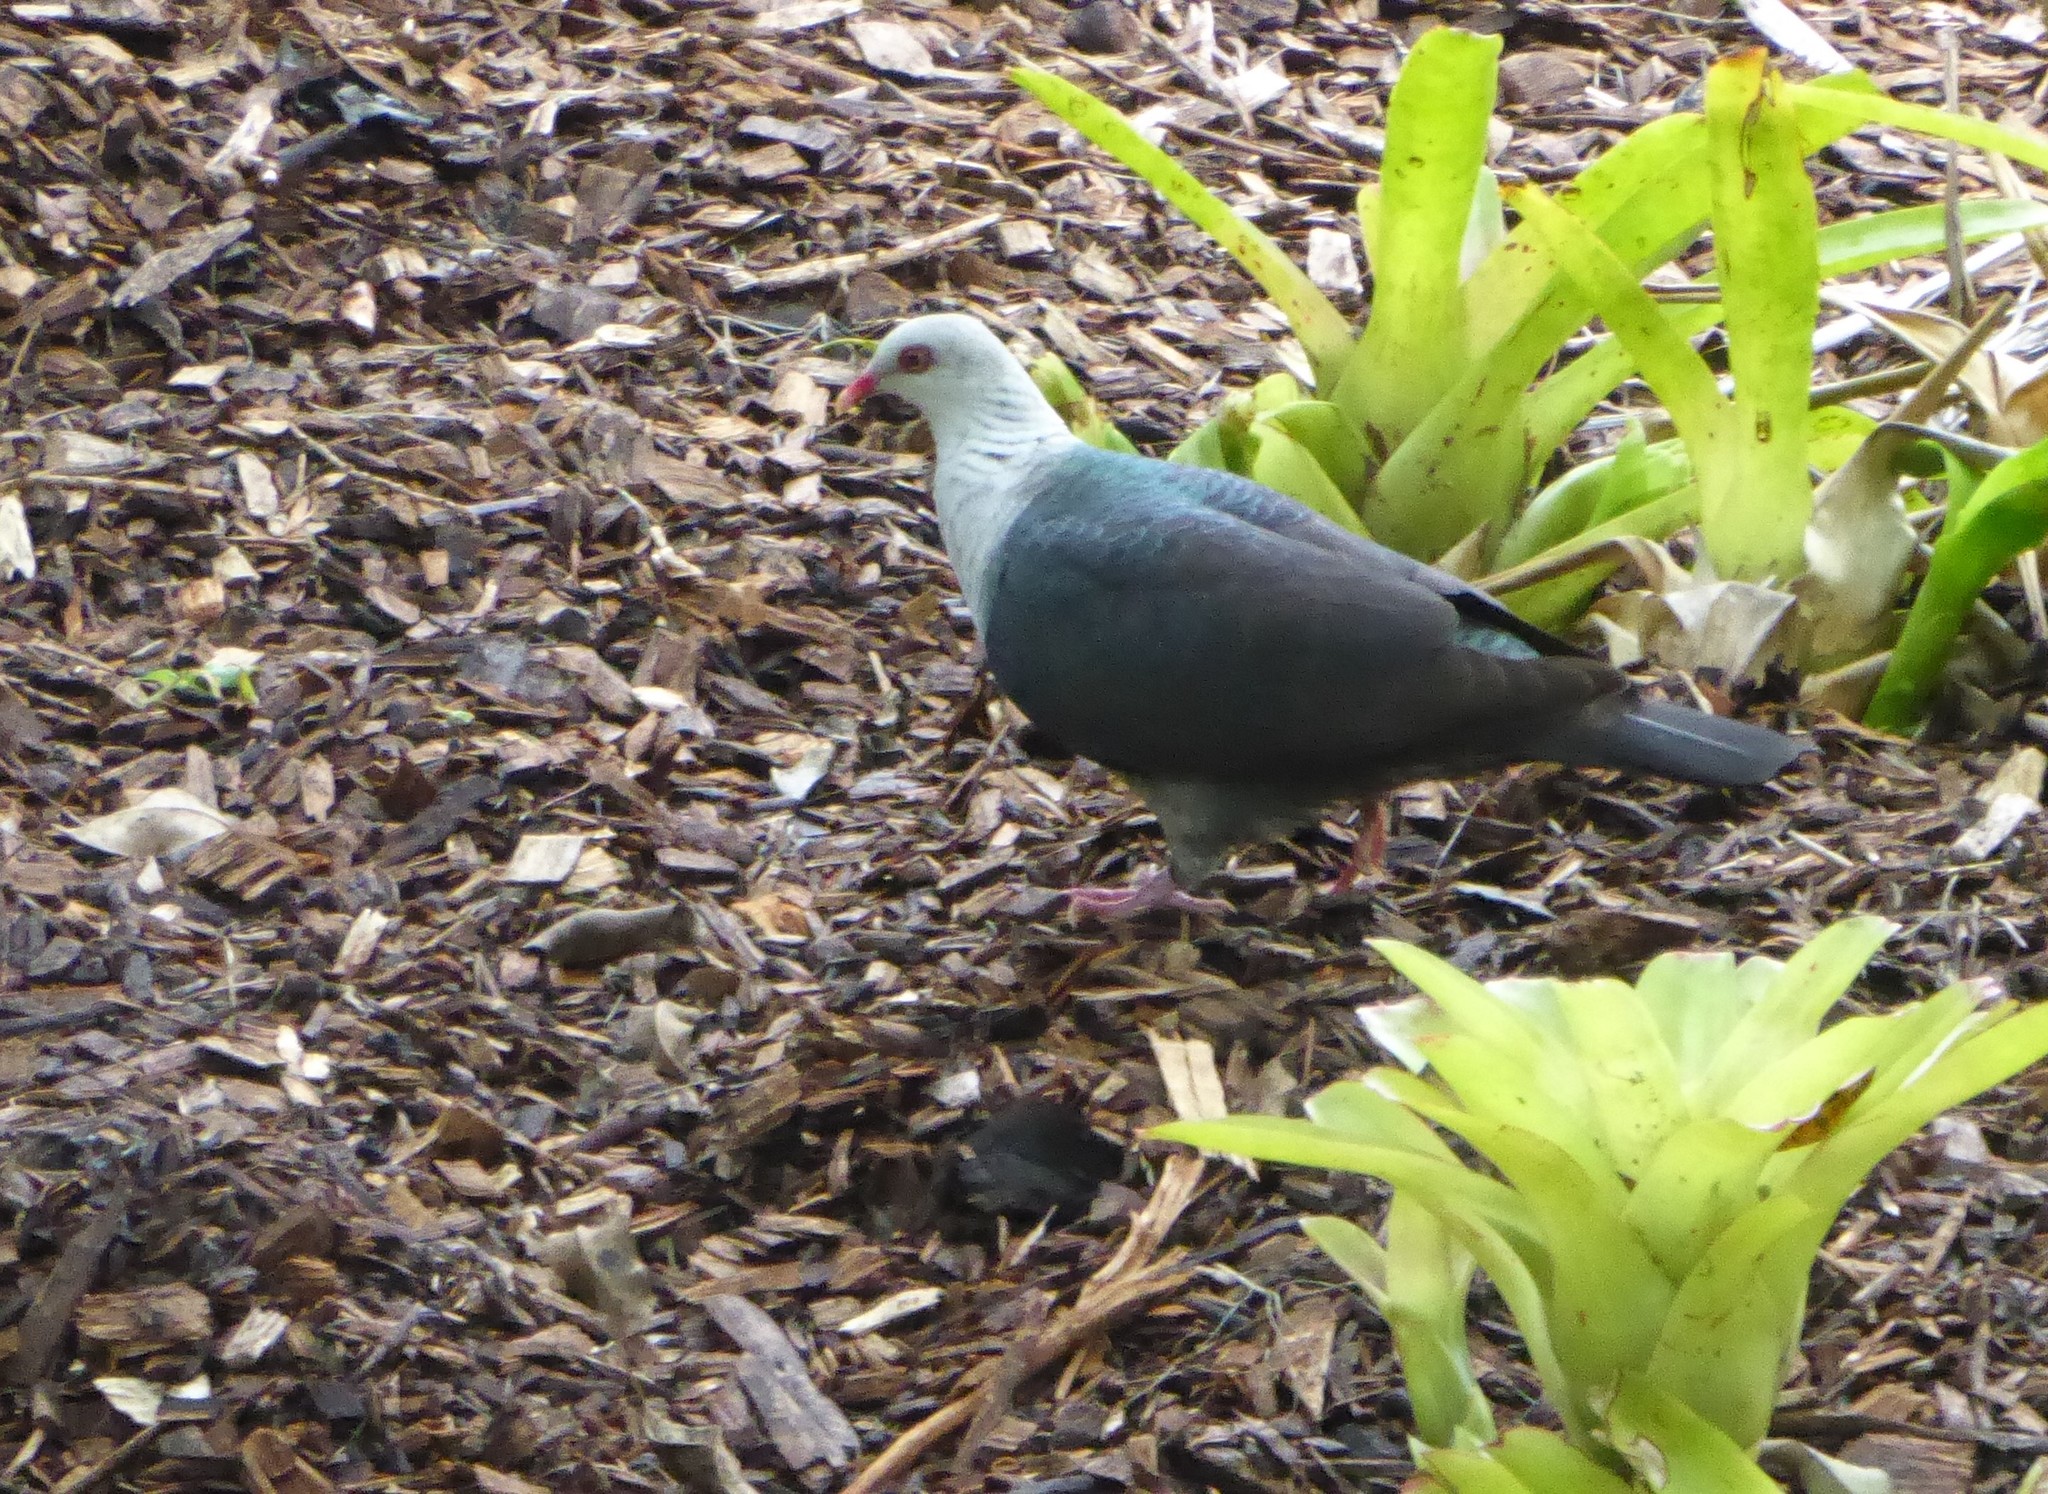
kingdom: Animalia
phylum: Chordata
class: Aves
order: Columbiformes
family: Columbidae
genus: Columba
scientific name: Columba leucomela
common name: White-headed pigeon
